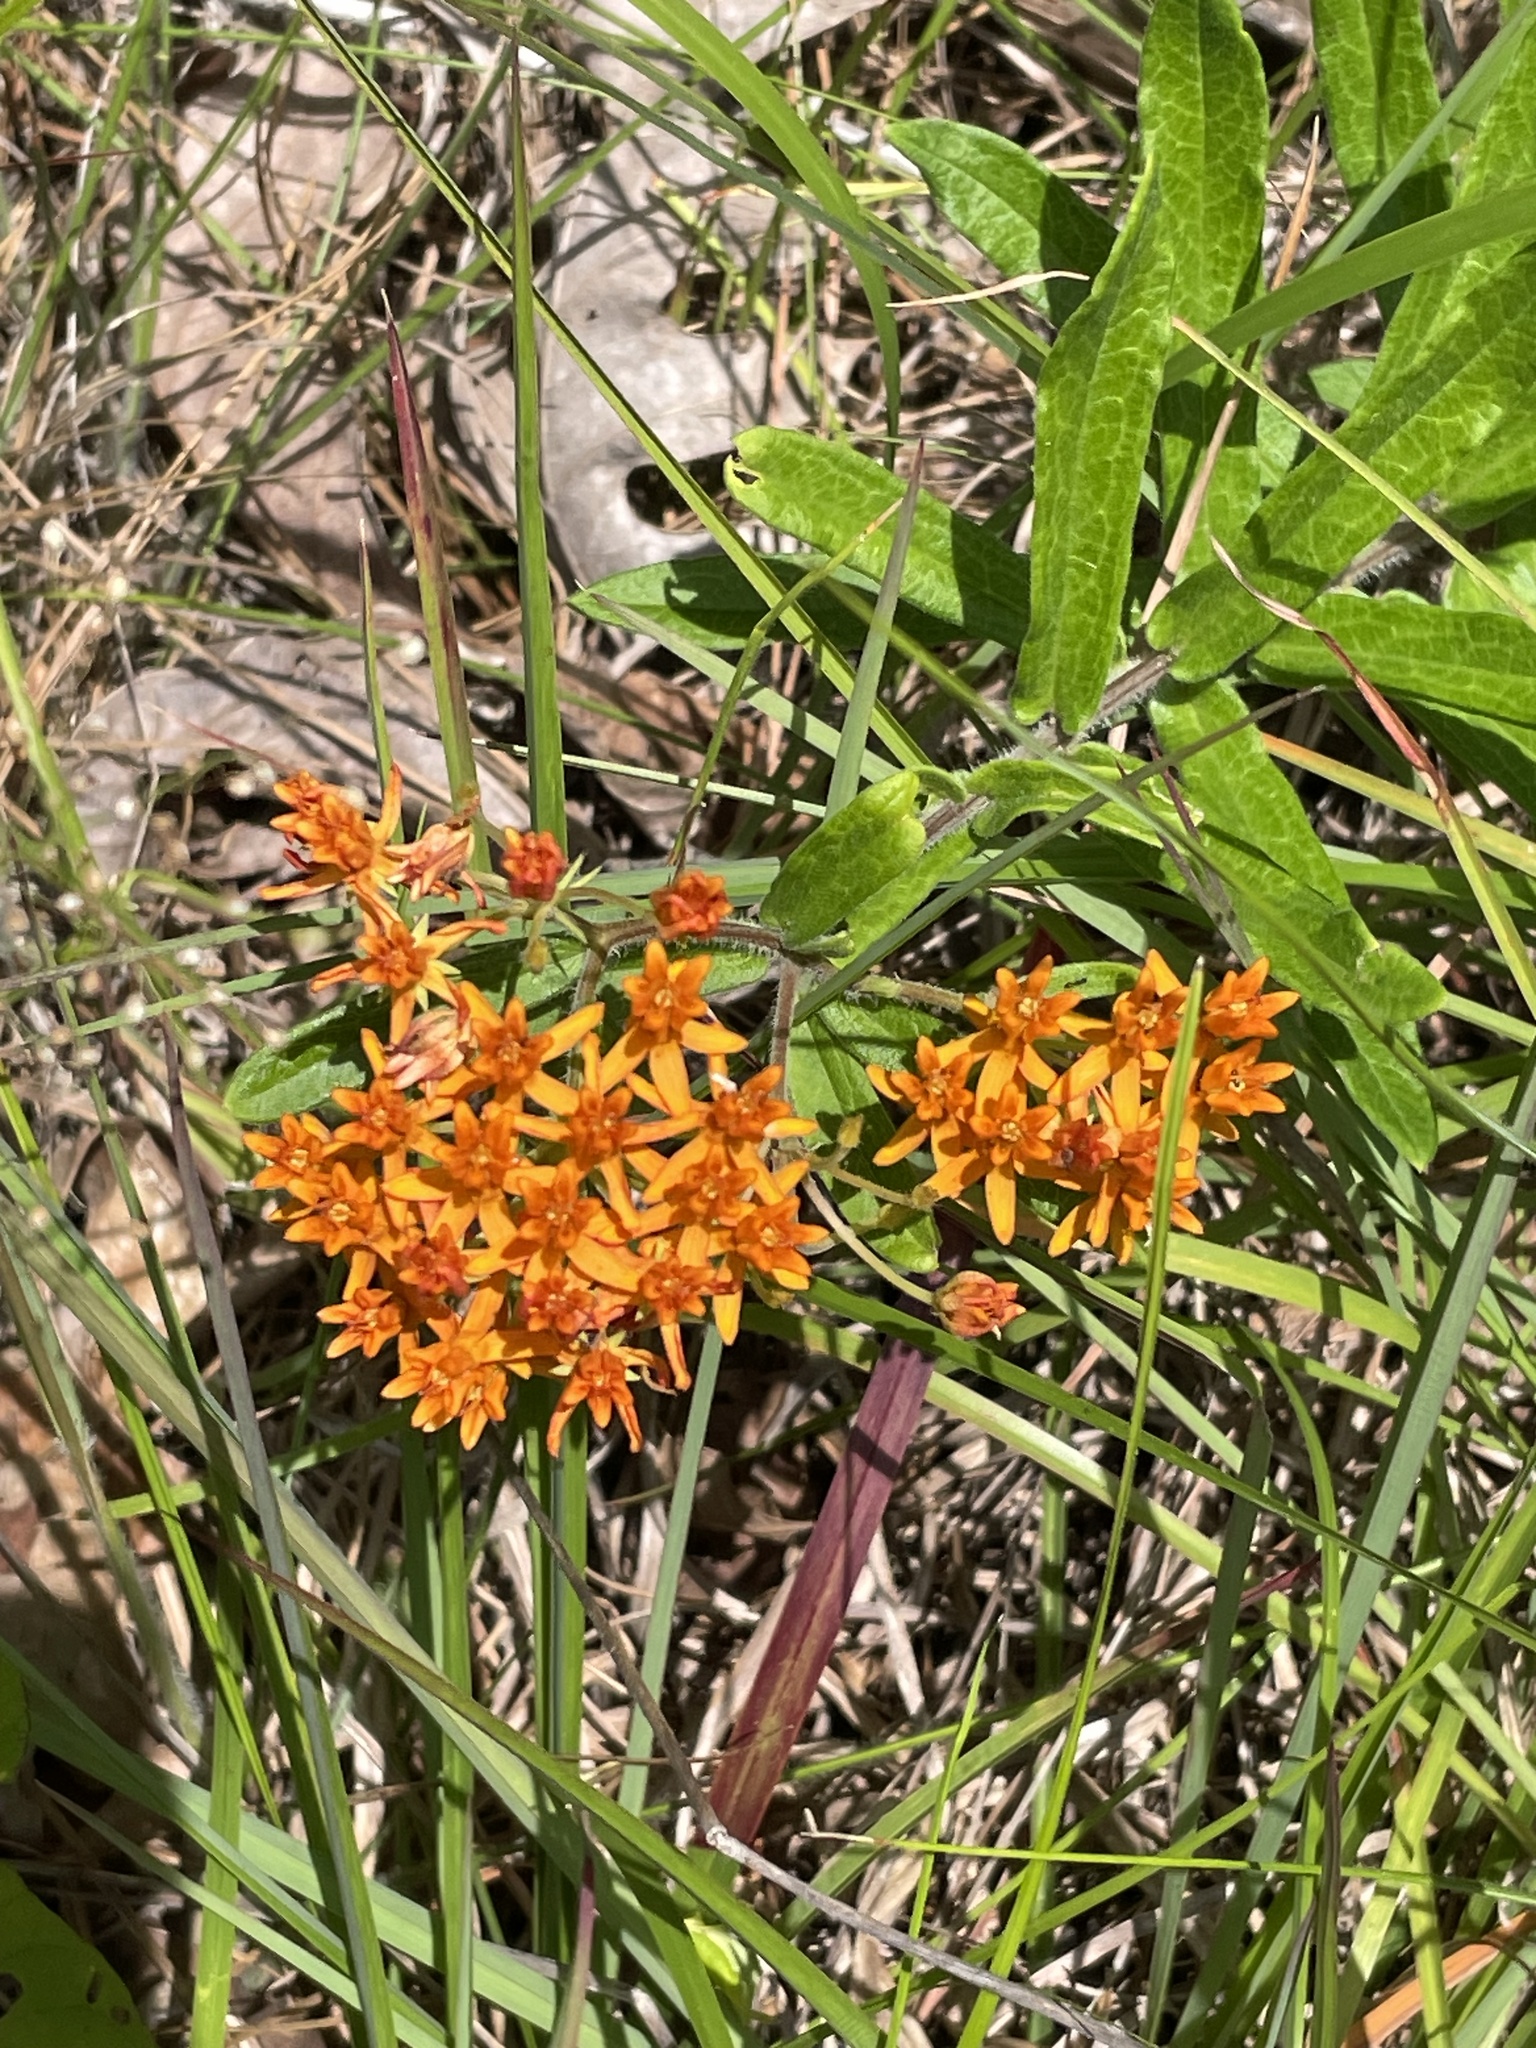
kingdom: Plantae
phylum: Tracheophyta
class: Magnoliopsida
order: Gentianales
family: Apocynaceae
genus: Asclepias
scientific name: Asclepias tuberosa
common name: Butterfly milkweed
